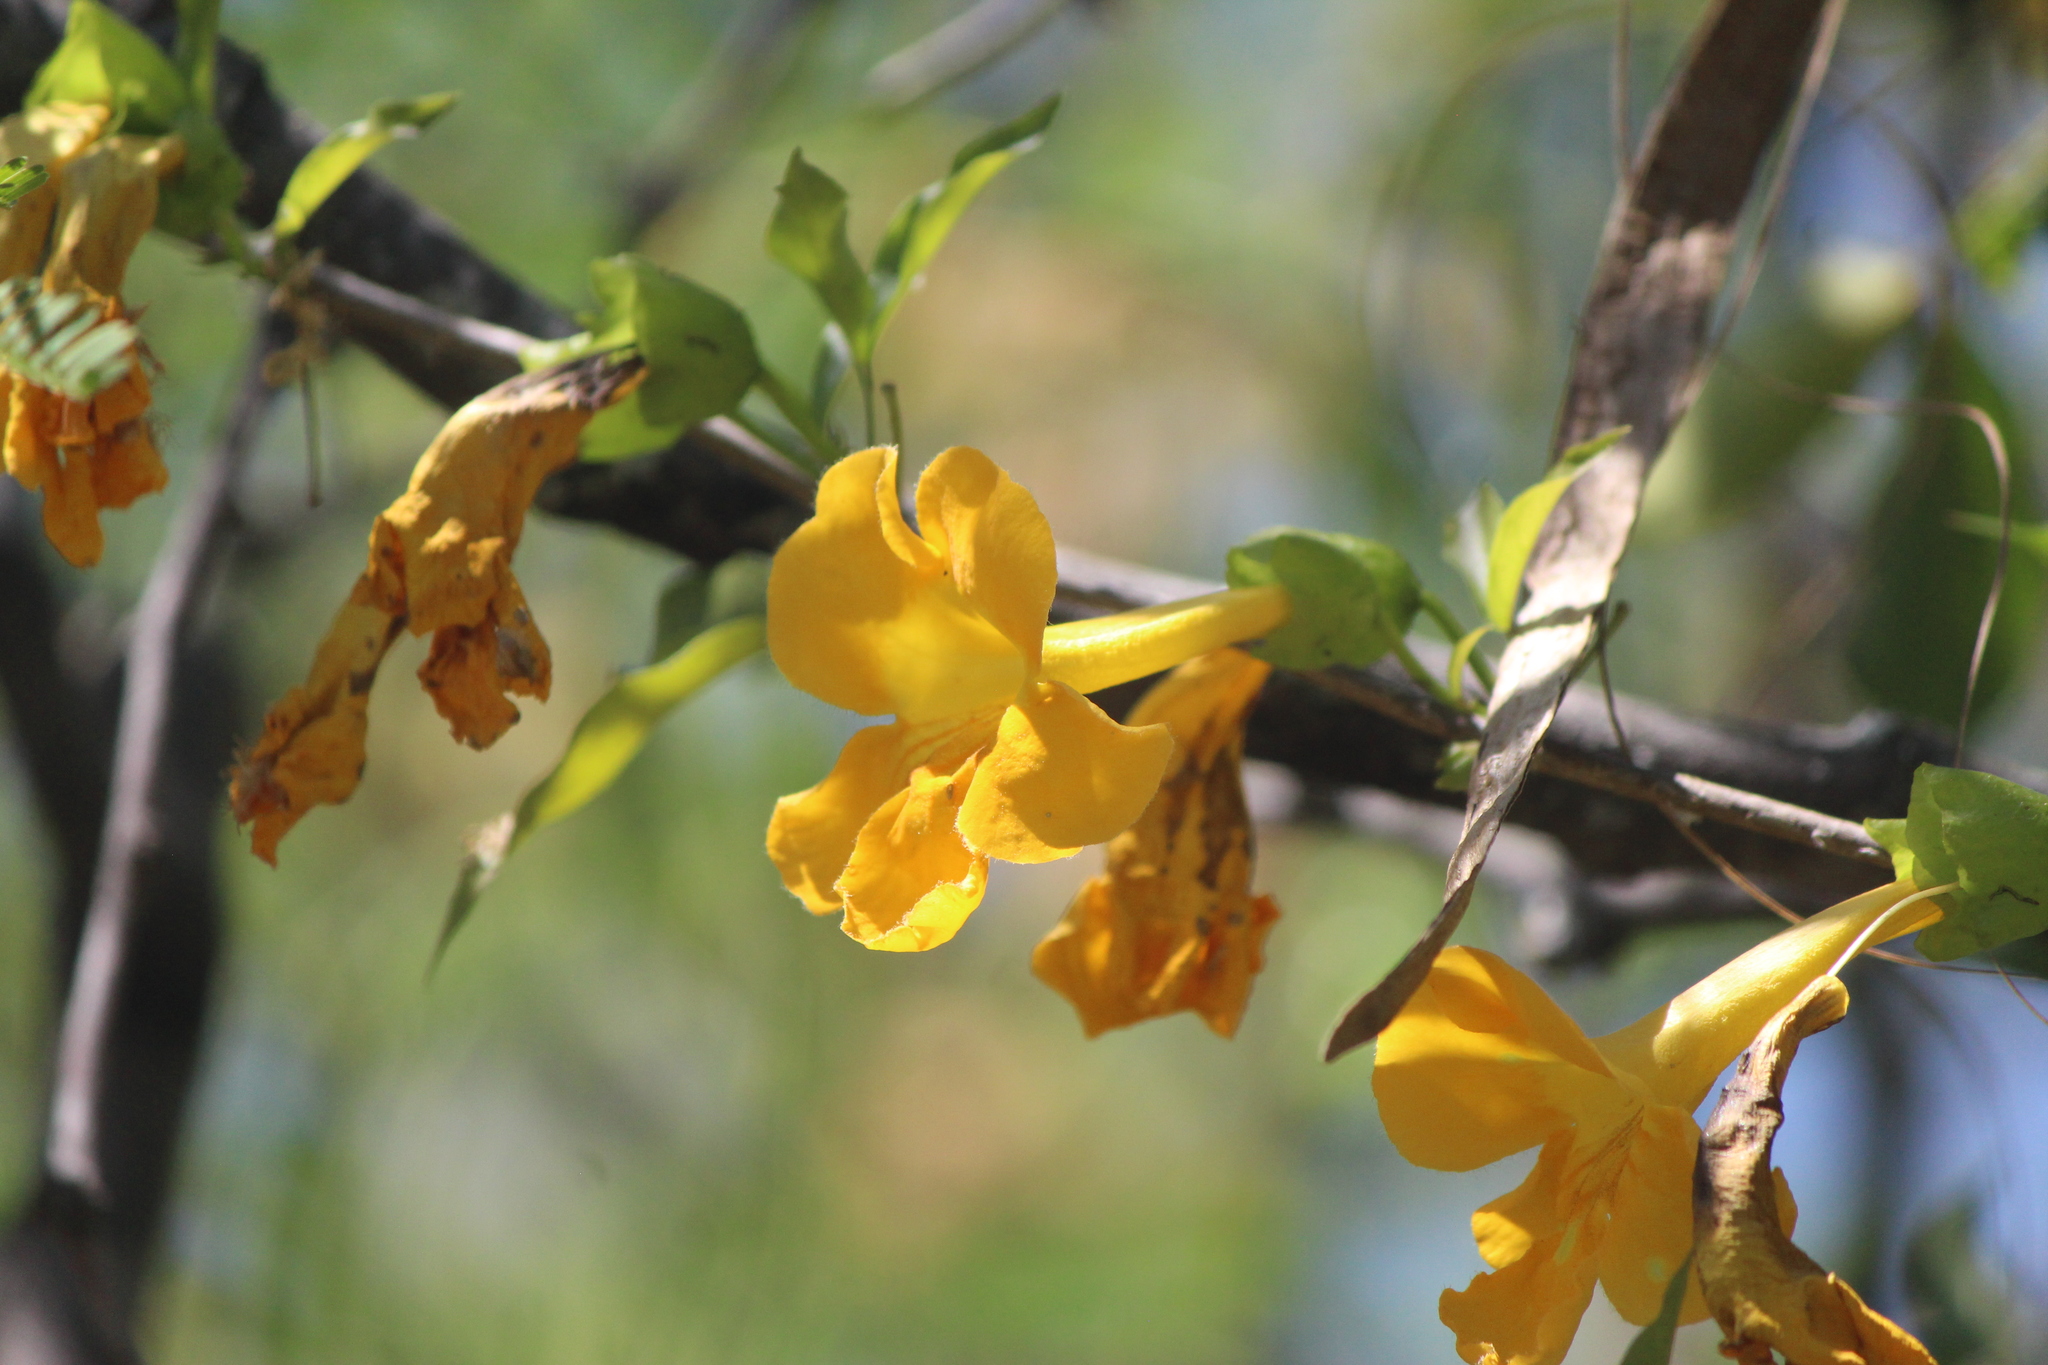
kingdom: Plantae
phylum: Tracheophyta
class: Magnoliopsida
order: Lamiales
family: Bignoniaceae
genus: Dolichandra
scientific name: Dolichandra unguis-cati
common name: Catclaw vine
